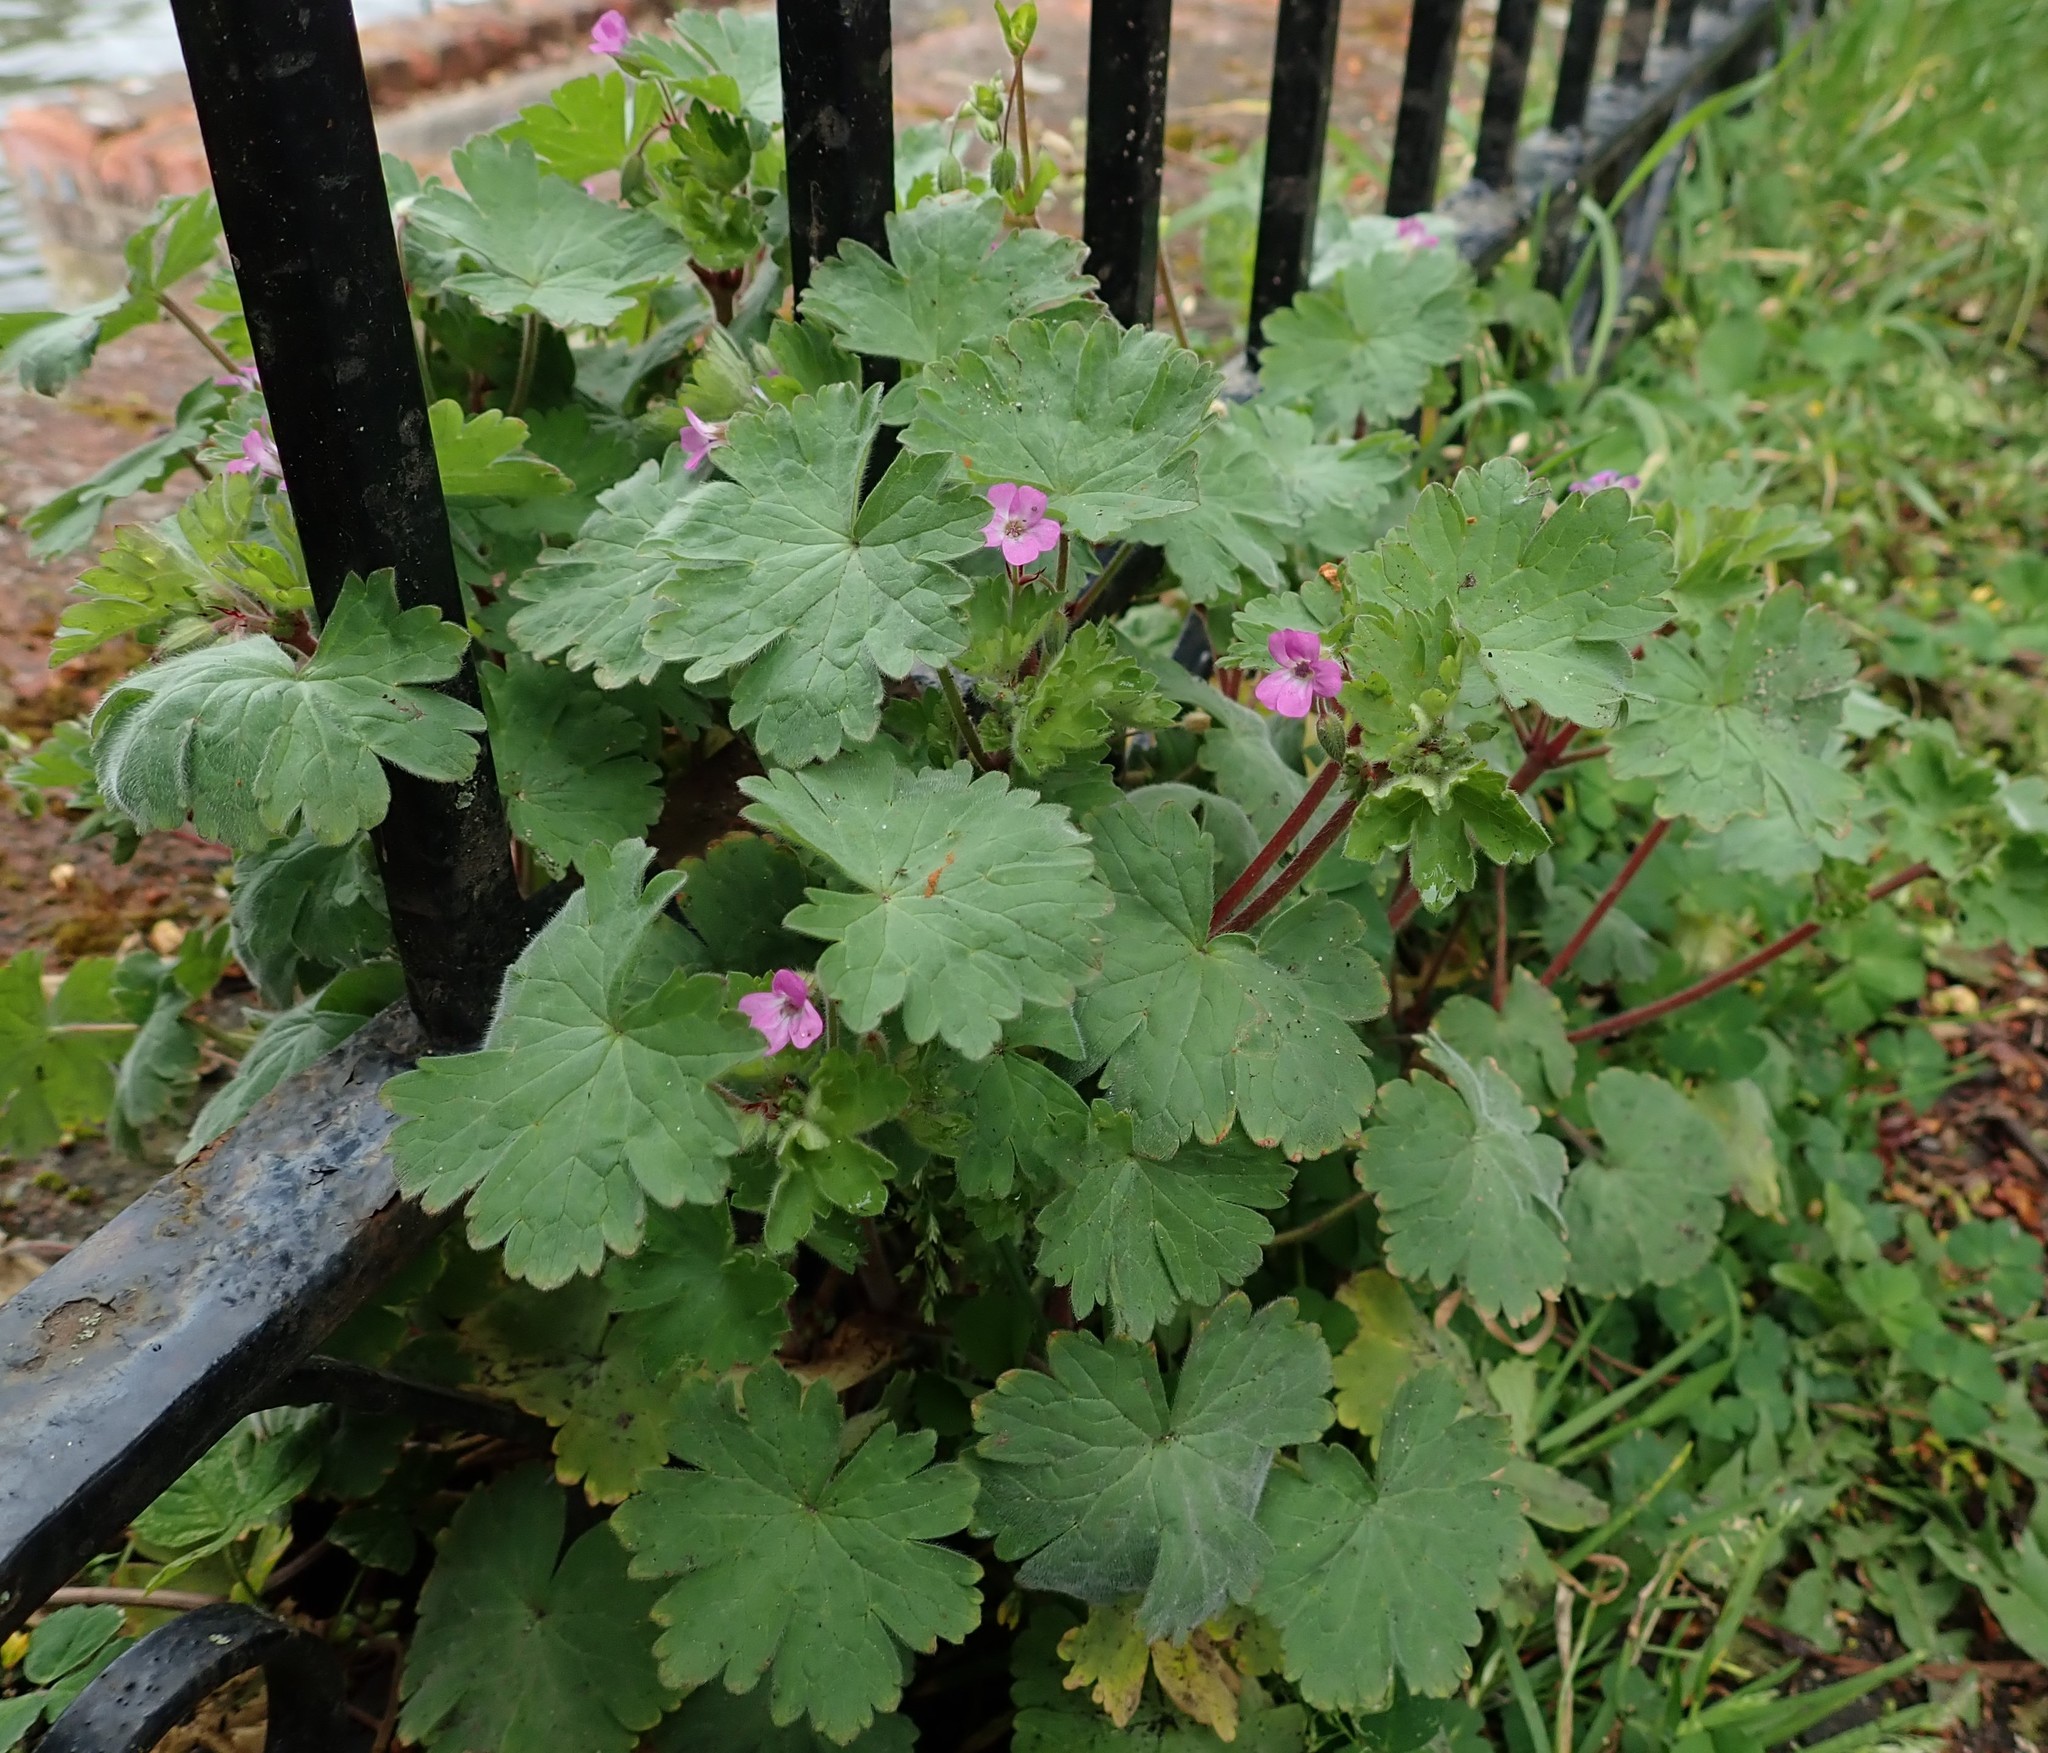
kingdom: Plantae
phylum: Tracheophyta
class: Magnoliopsida
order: Geraniales
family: Geraniaceae
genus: Geranium
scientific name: Geranium rotundifolium
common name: Round-leaved crane's-bill
